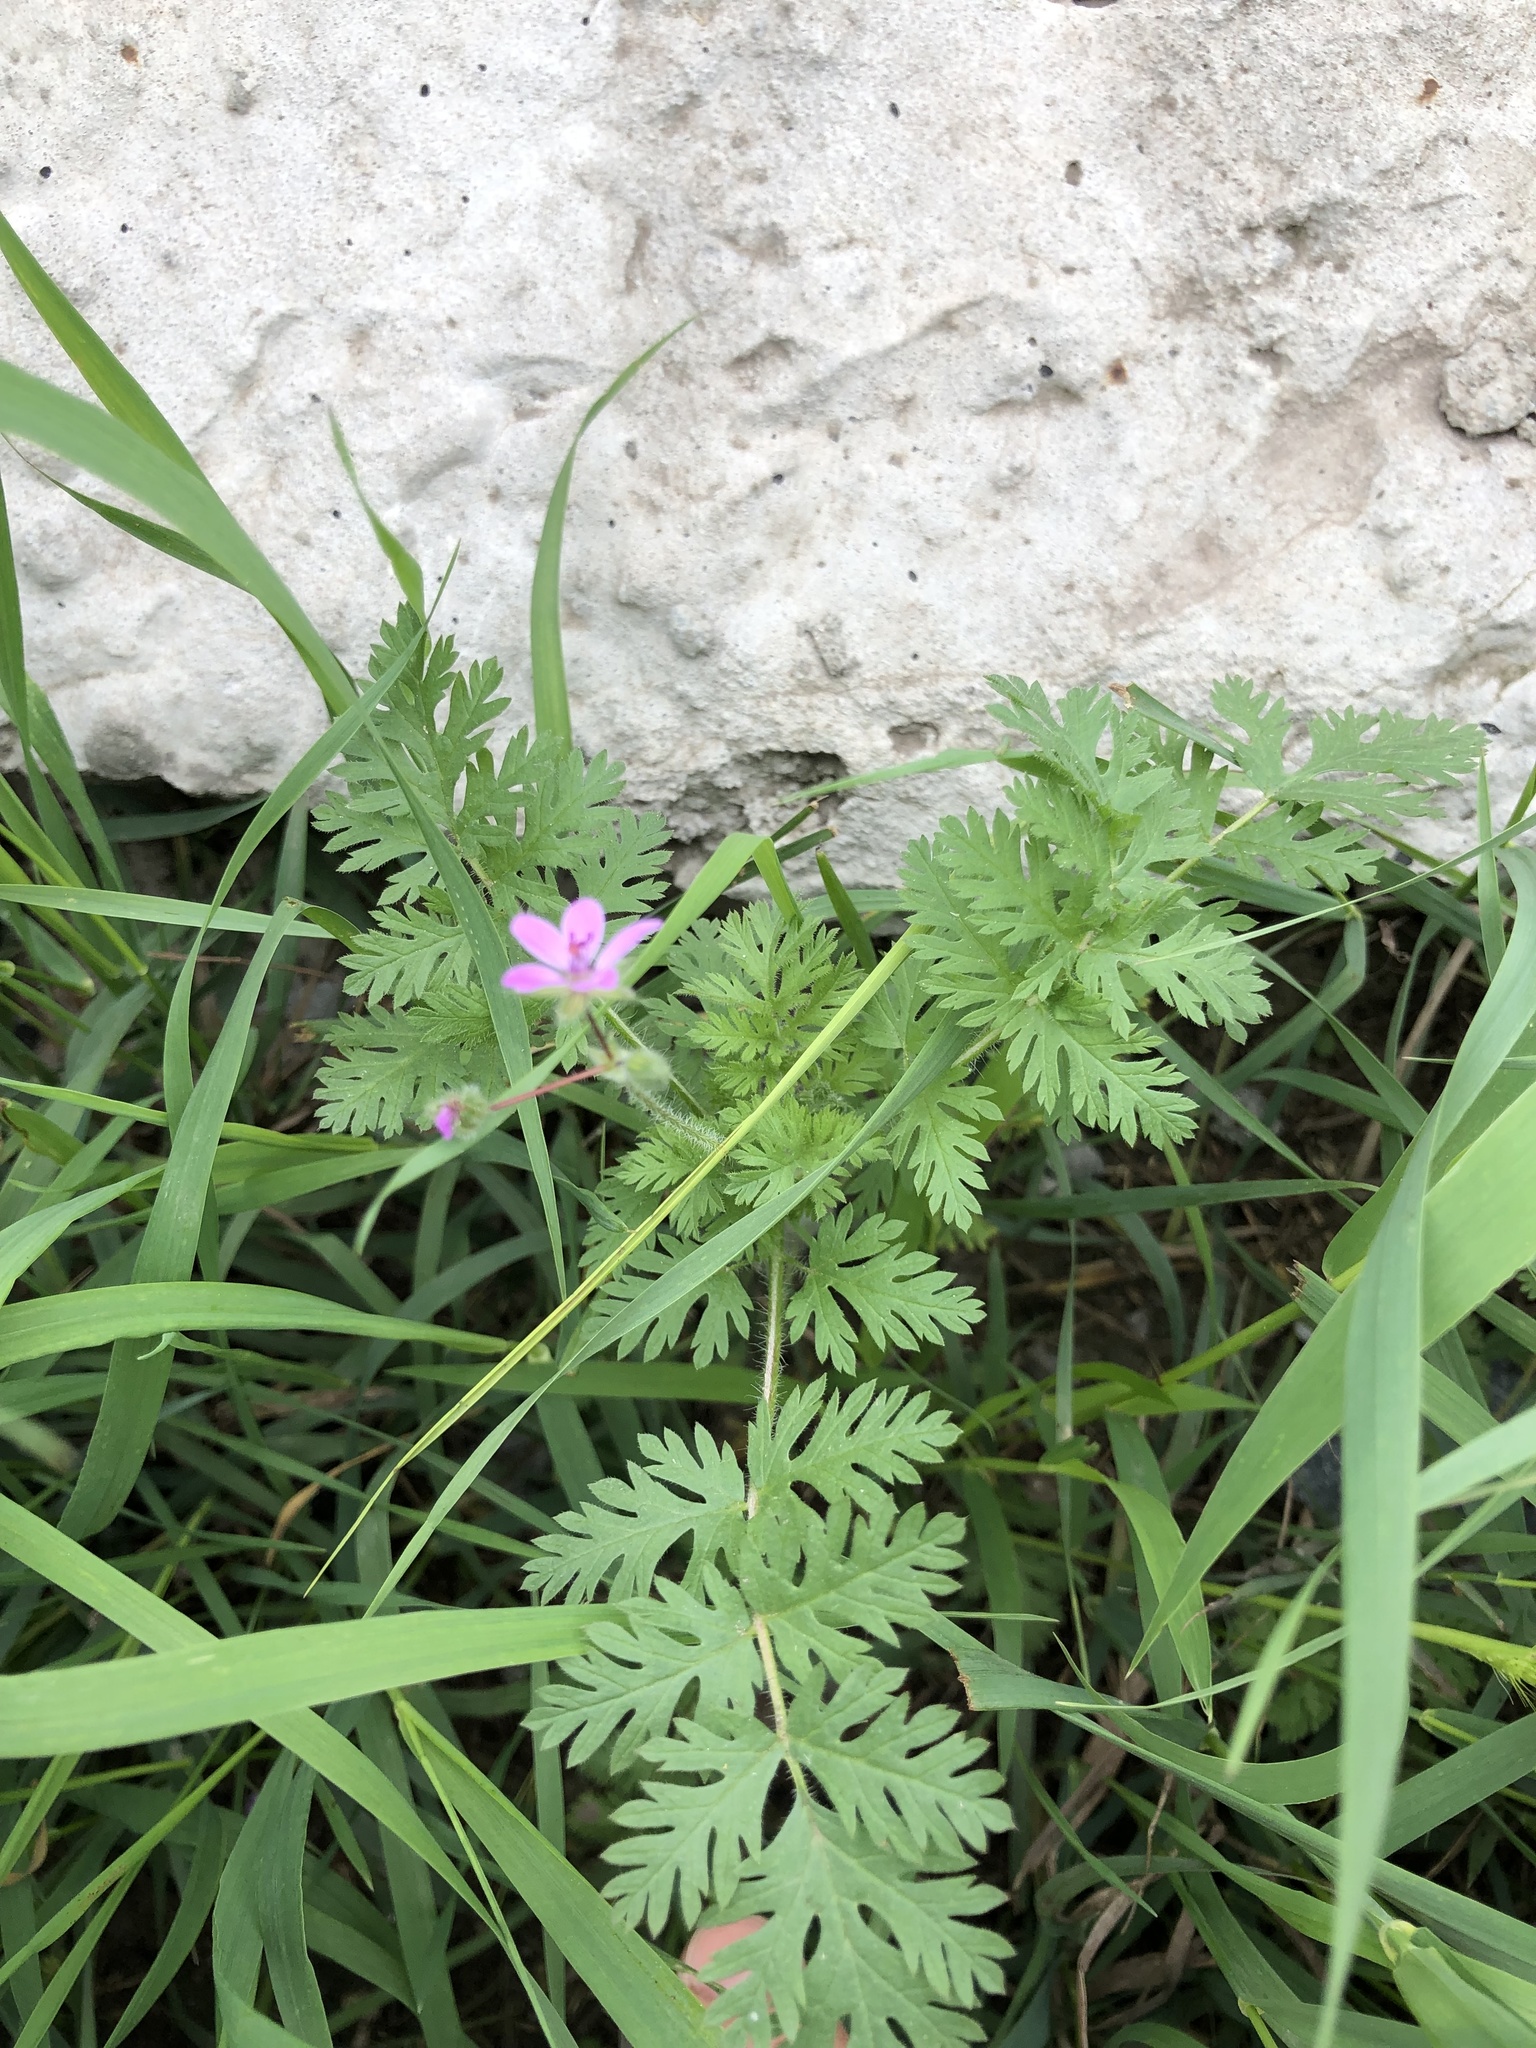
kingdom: Plantae
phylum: Tracheophyta
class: Magnoliopsida
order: Geraniales
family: Geraniaceae
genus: Erodium
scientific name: Erodium cicutarium
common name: Common stork's-bill
